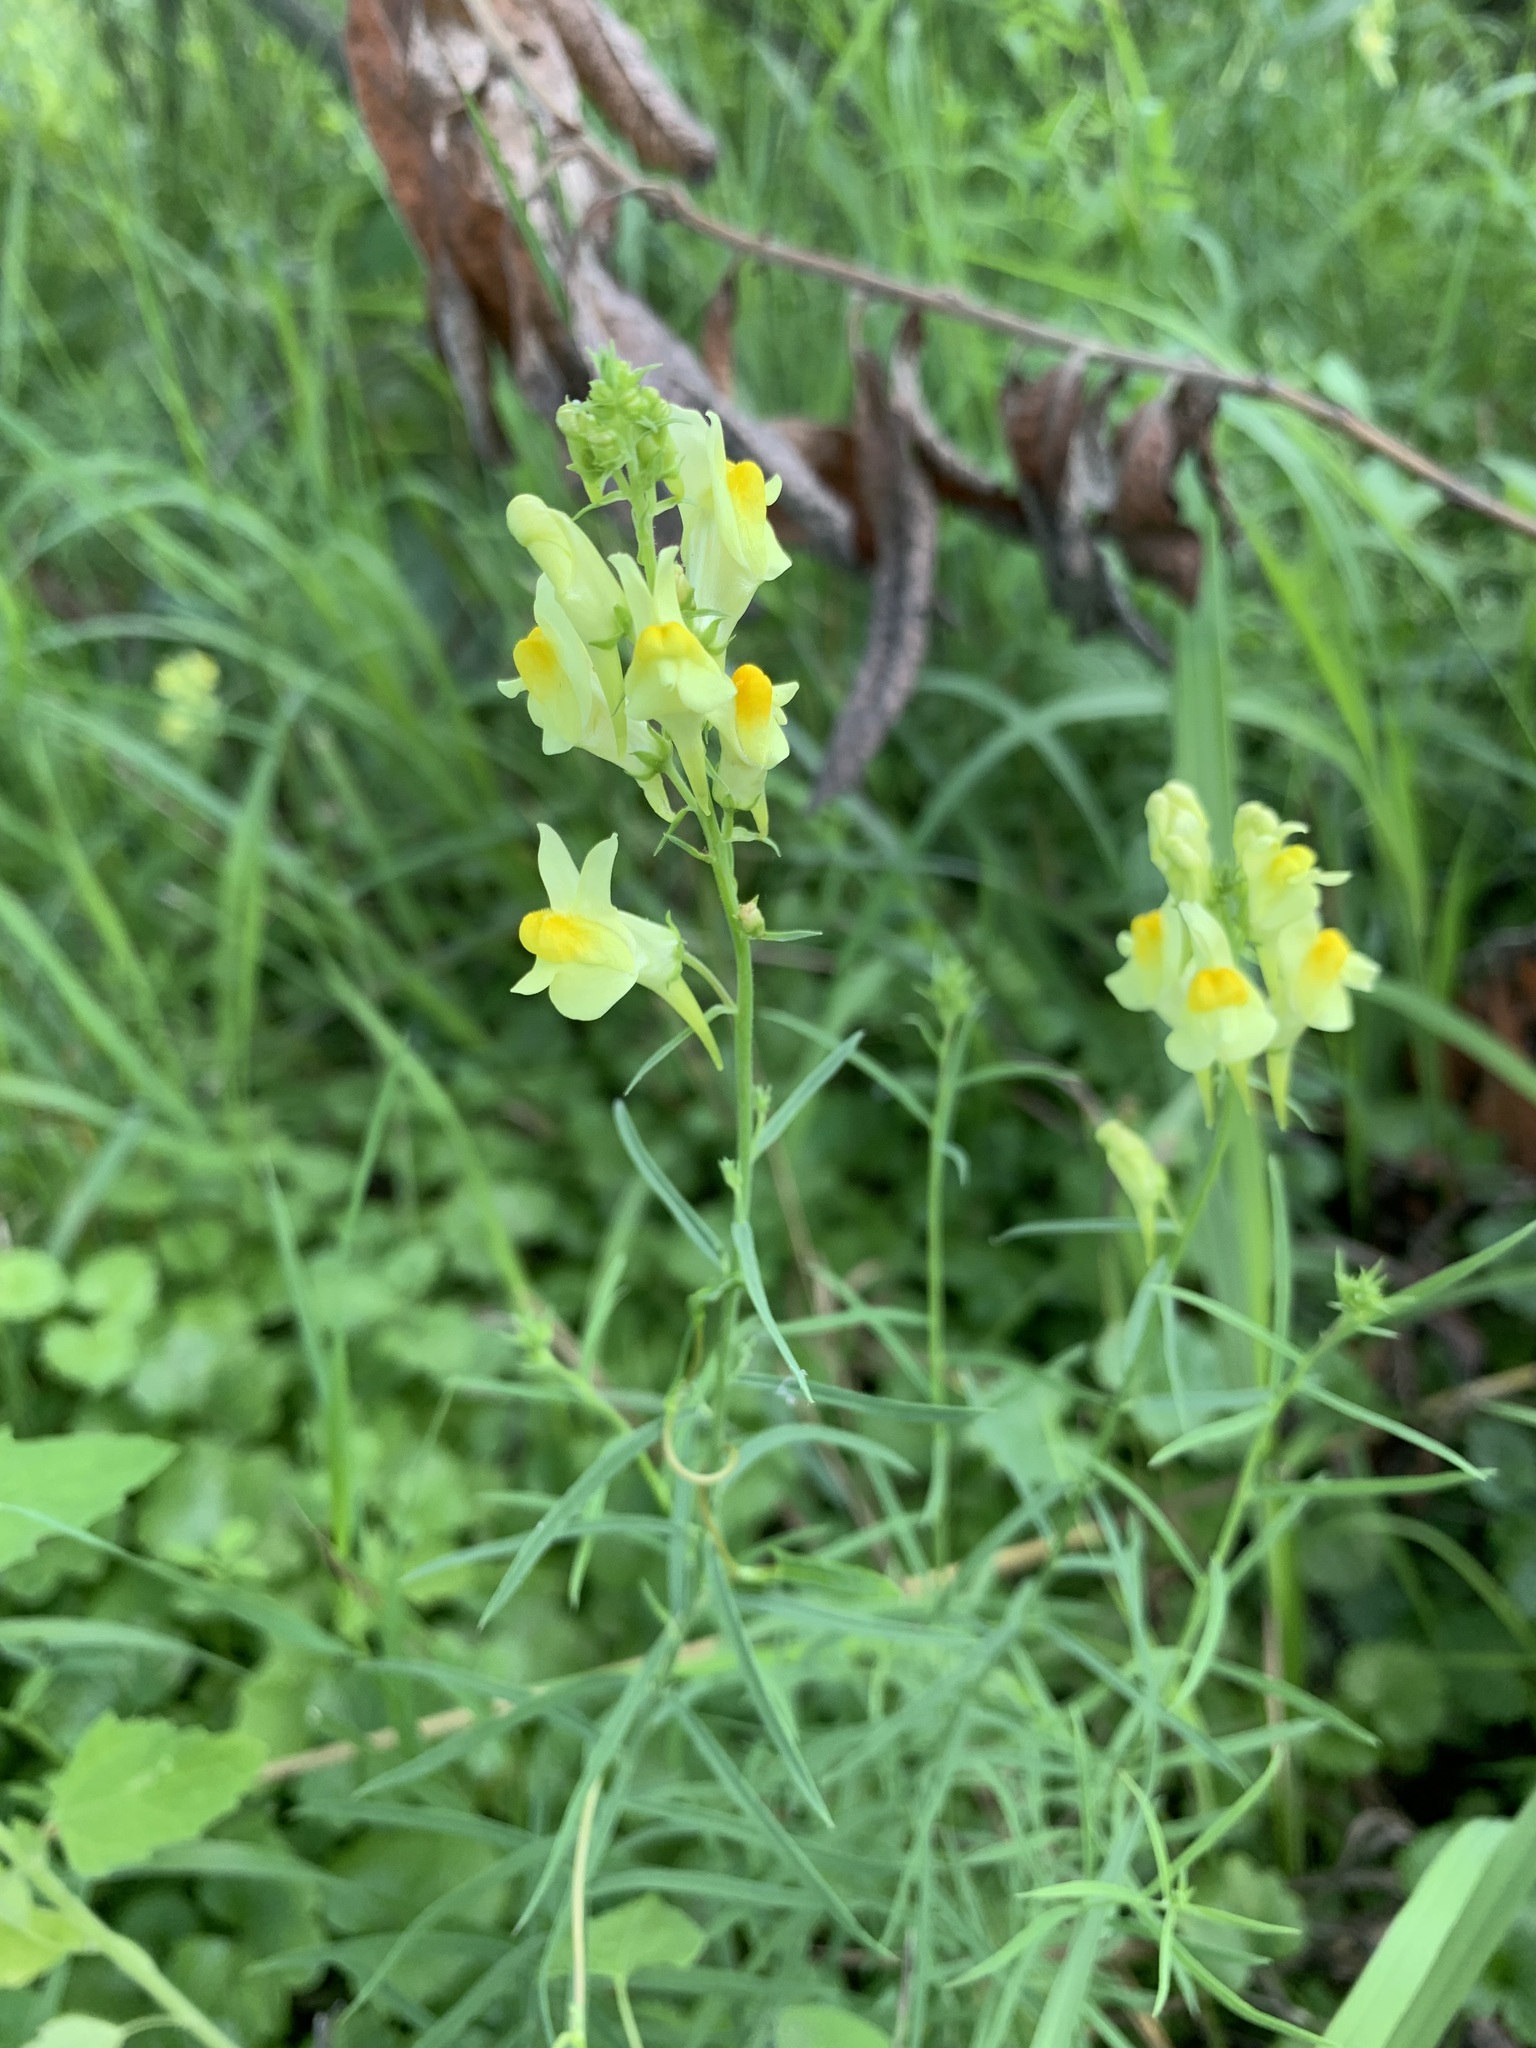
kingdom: Plantae
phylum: Tracheophyta
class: Magnoliopsida
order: Lamiales
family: Plantaginaceae
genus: Linaria
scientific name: Linaria vulgaris
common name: Butter and eggs
